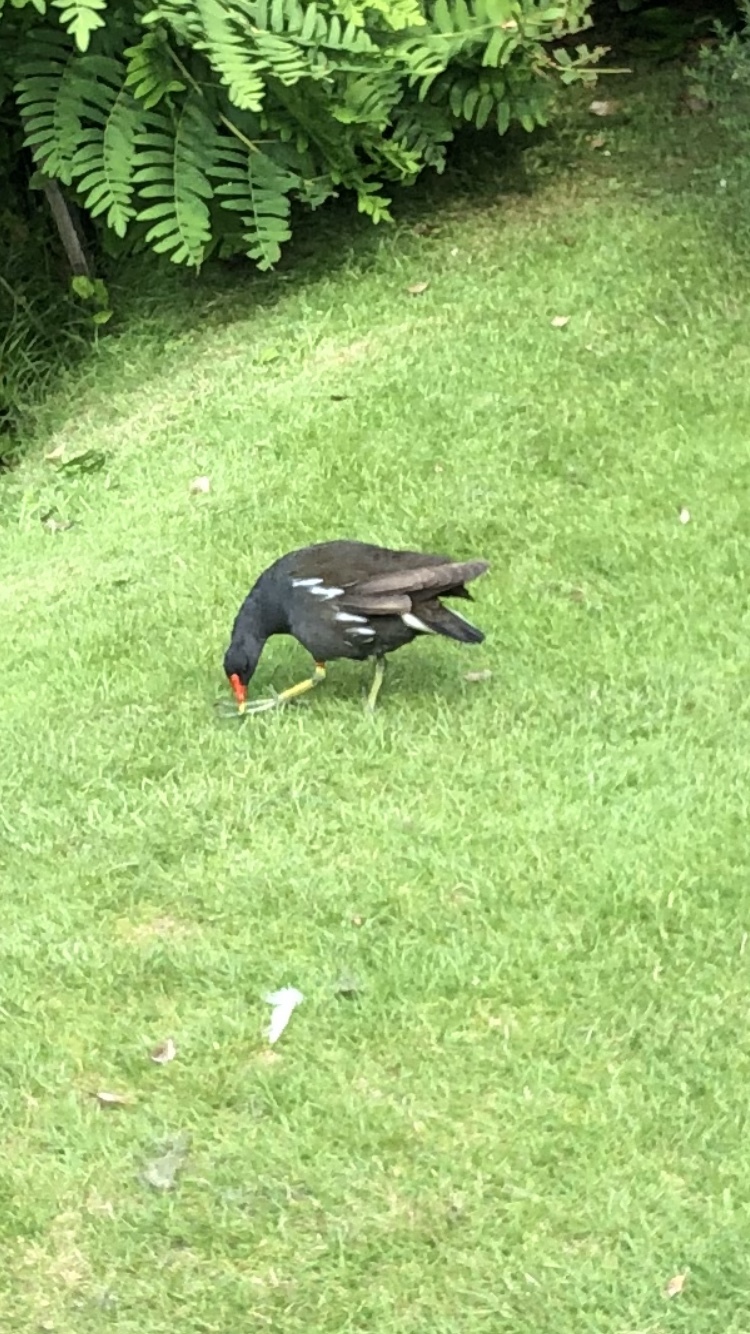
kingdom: Animalia
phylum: Chordata
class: Aves
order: Gruiformes
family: Rallidae
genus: Gallinula
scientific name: Gallinula chloropus
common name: Common moorhen
